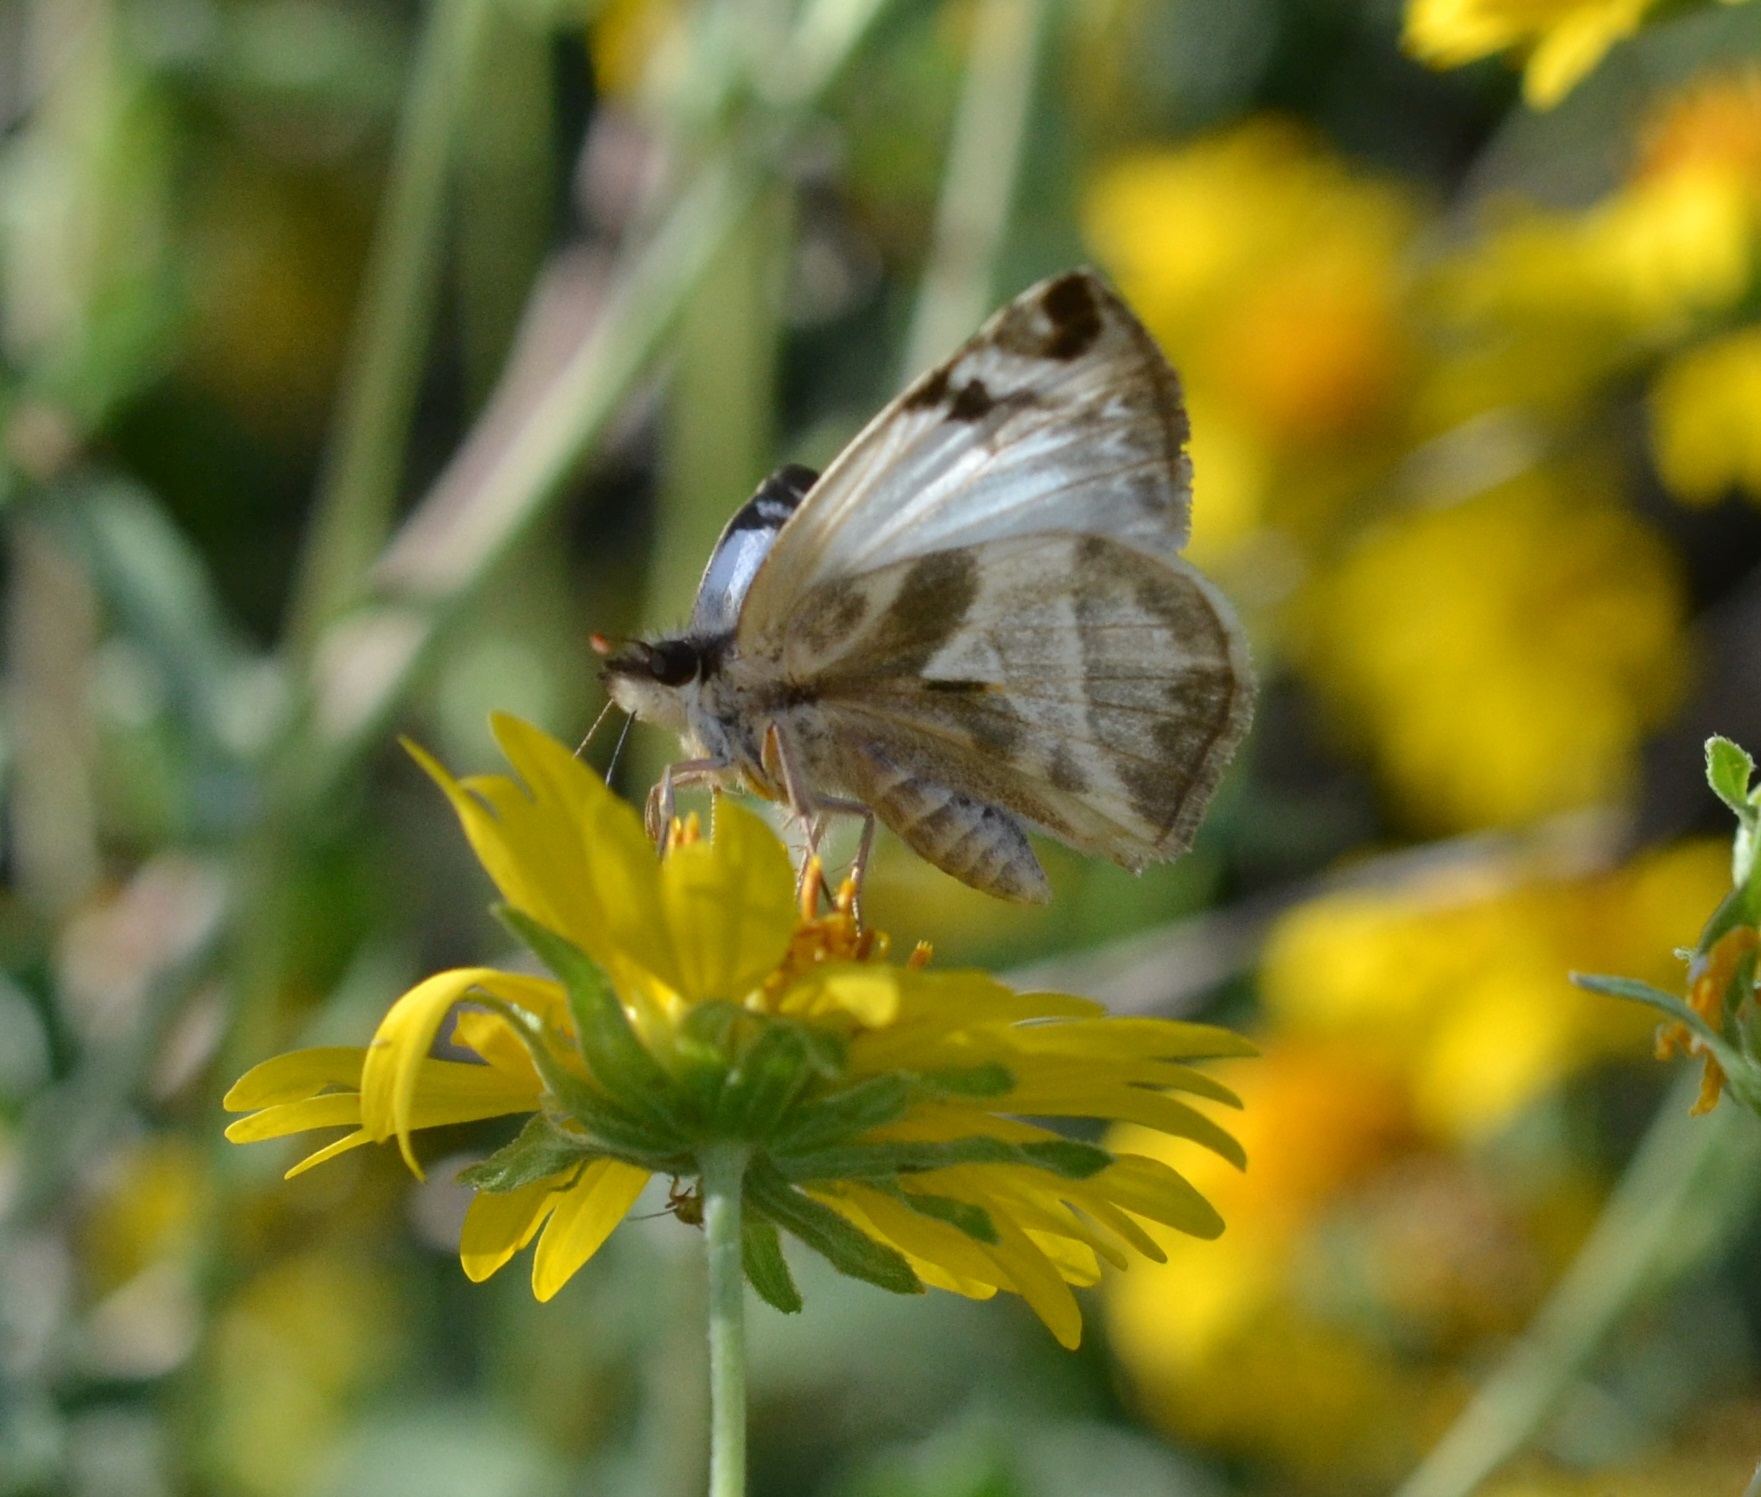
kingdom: Animalia
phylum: Arthropoda
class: Insecta
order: Lepidoptera
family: Hesperiidae
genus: Heliopetes
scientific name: Heliopetes laviana
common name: Laviana white-skipper
